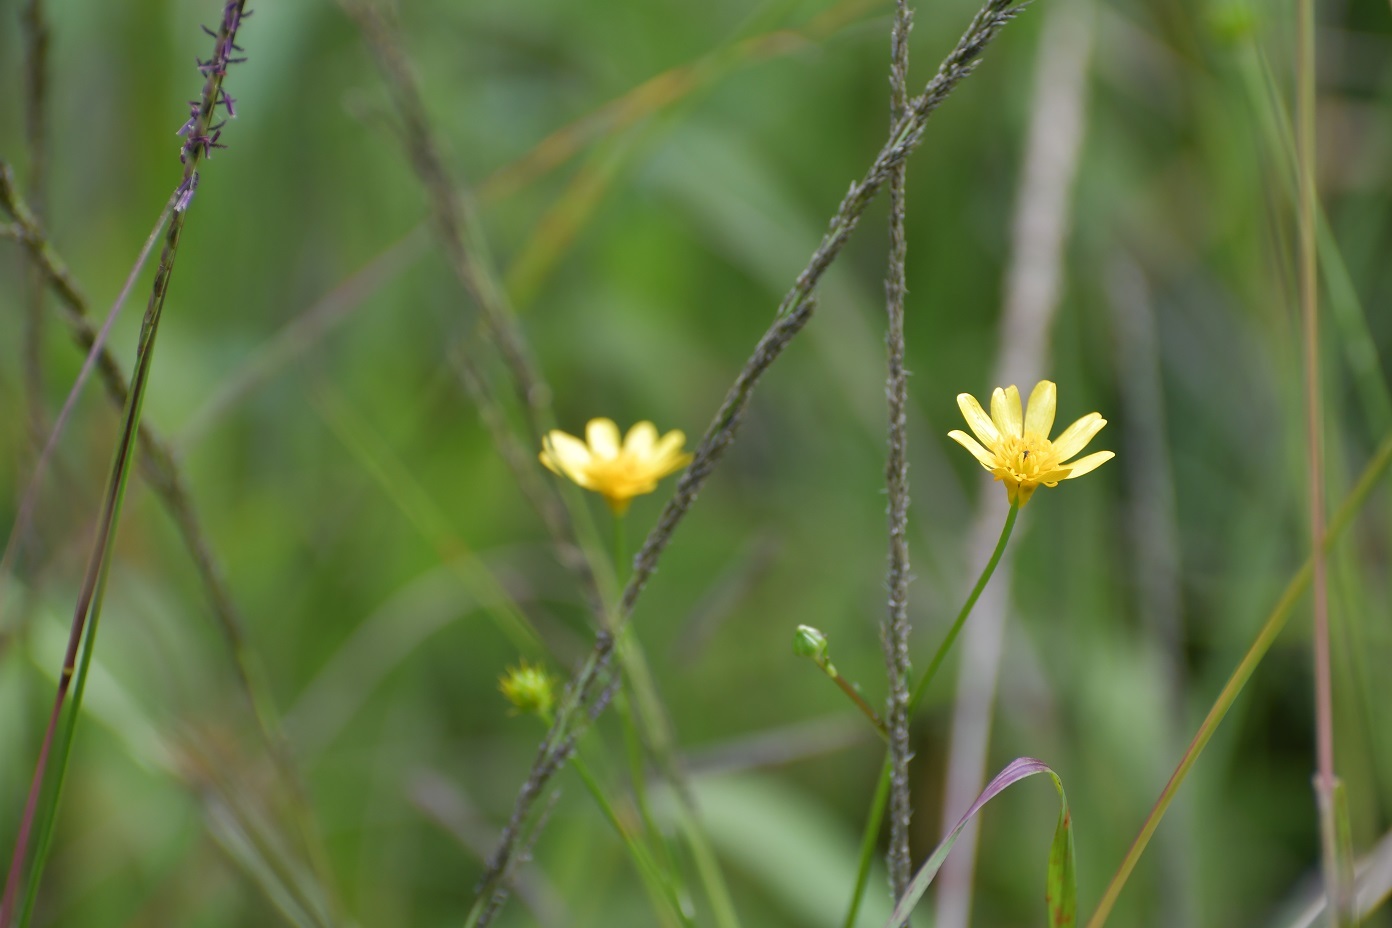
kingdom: Plantae
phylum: Tracheophyta
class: Magnoliopsida
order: Ranunculales
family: Ranunculaceae
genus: Ranunculus
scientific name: Ranunculus petiolaris
